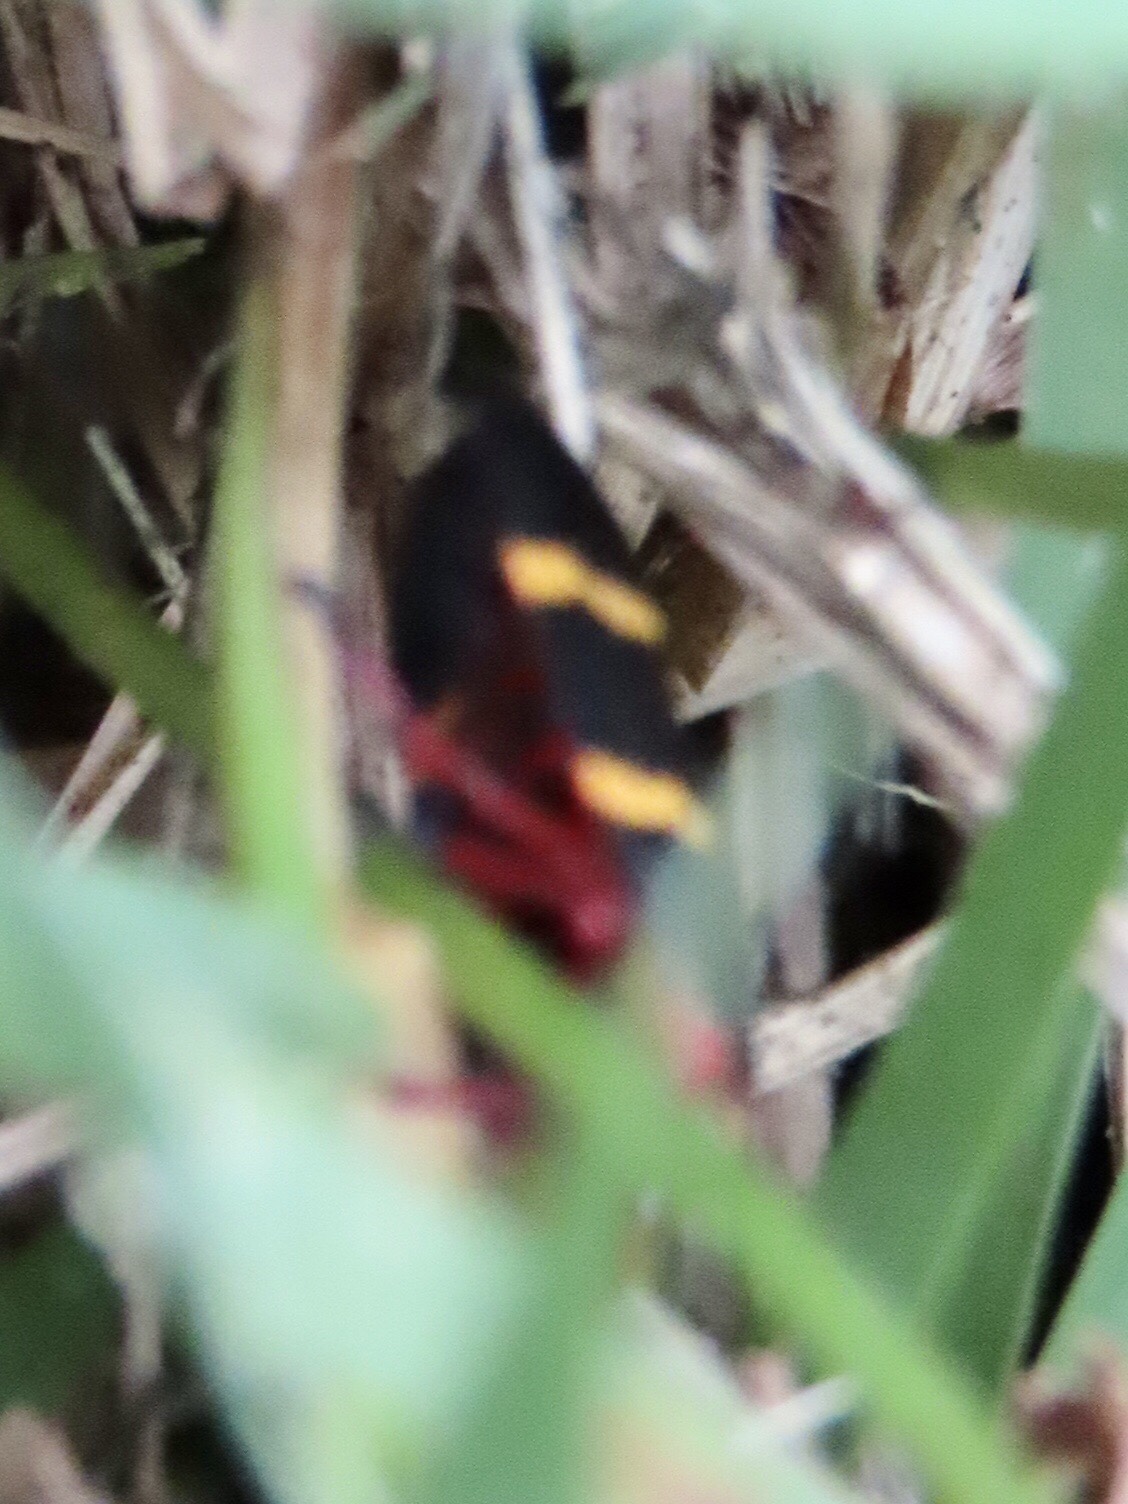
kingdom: Animalia
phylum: Arthropoda
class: Insecta
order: Hemiptera
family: Cercopidae
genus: Prosapia
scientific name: Prosapia bicincta
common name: Twolined spittlebug
